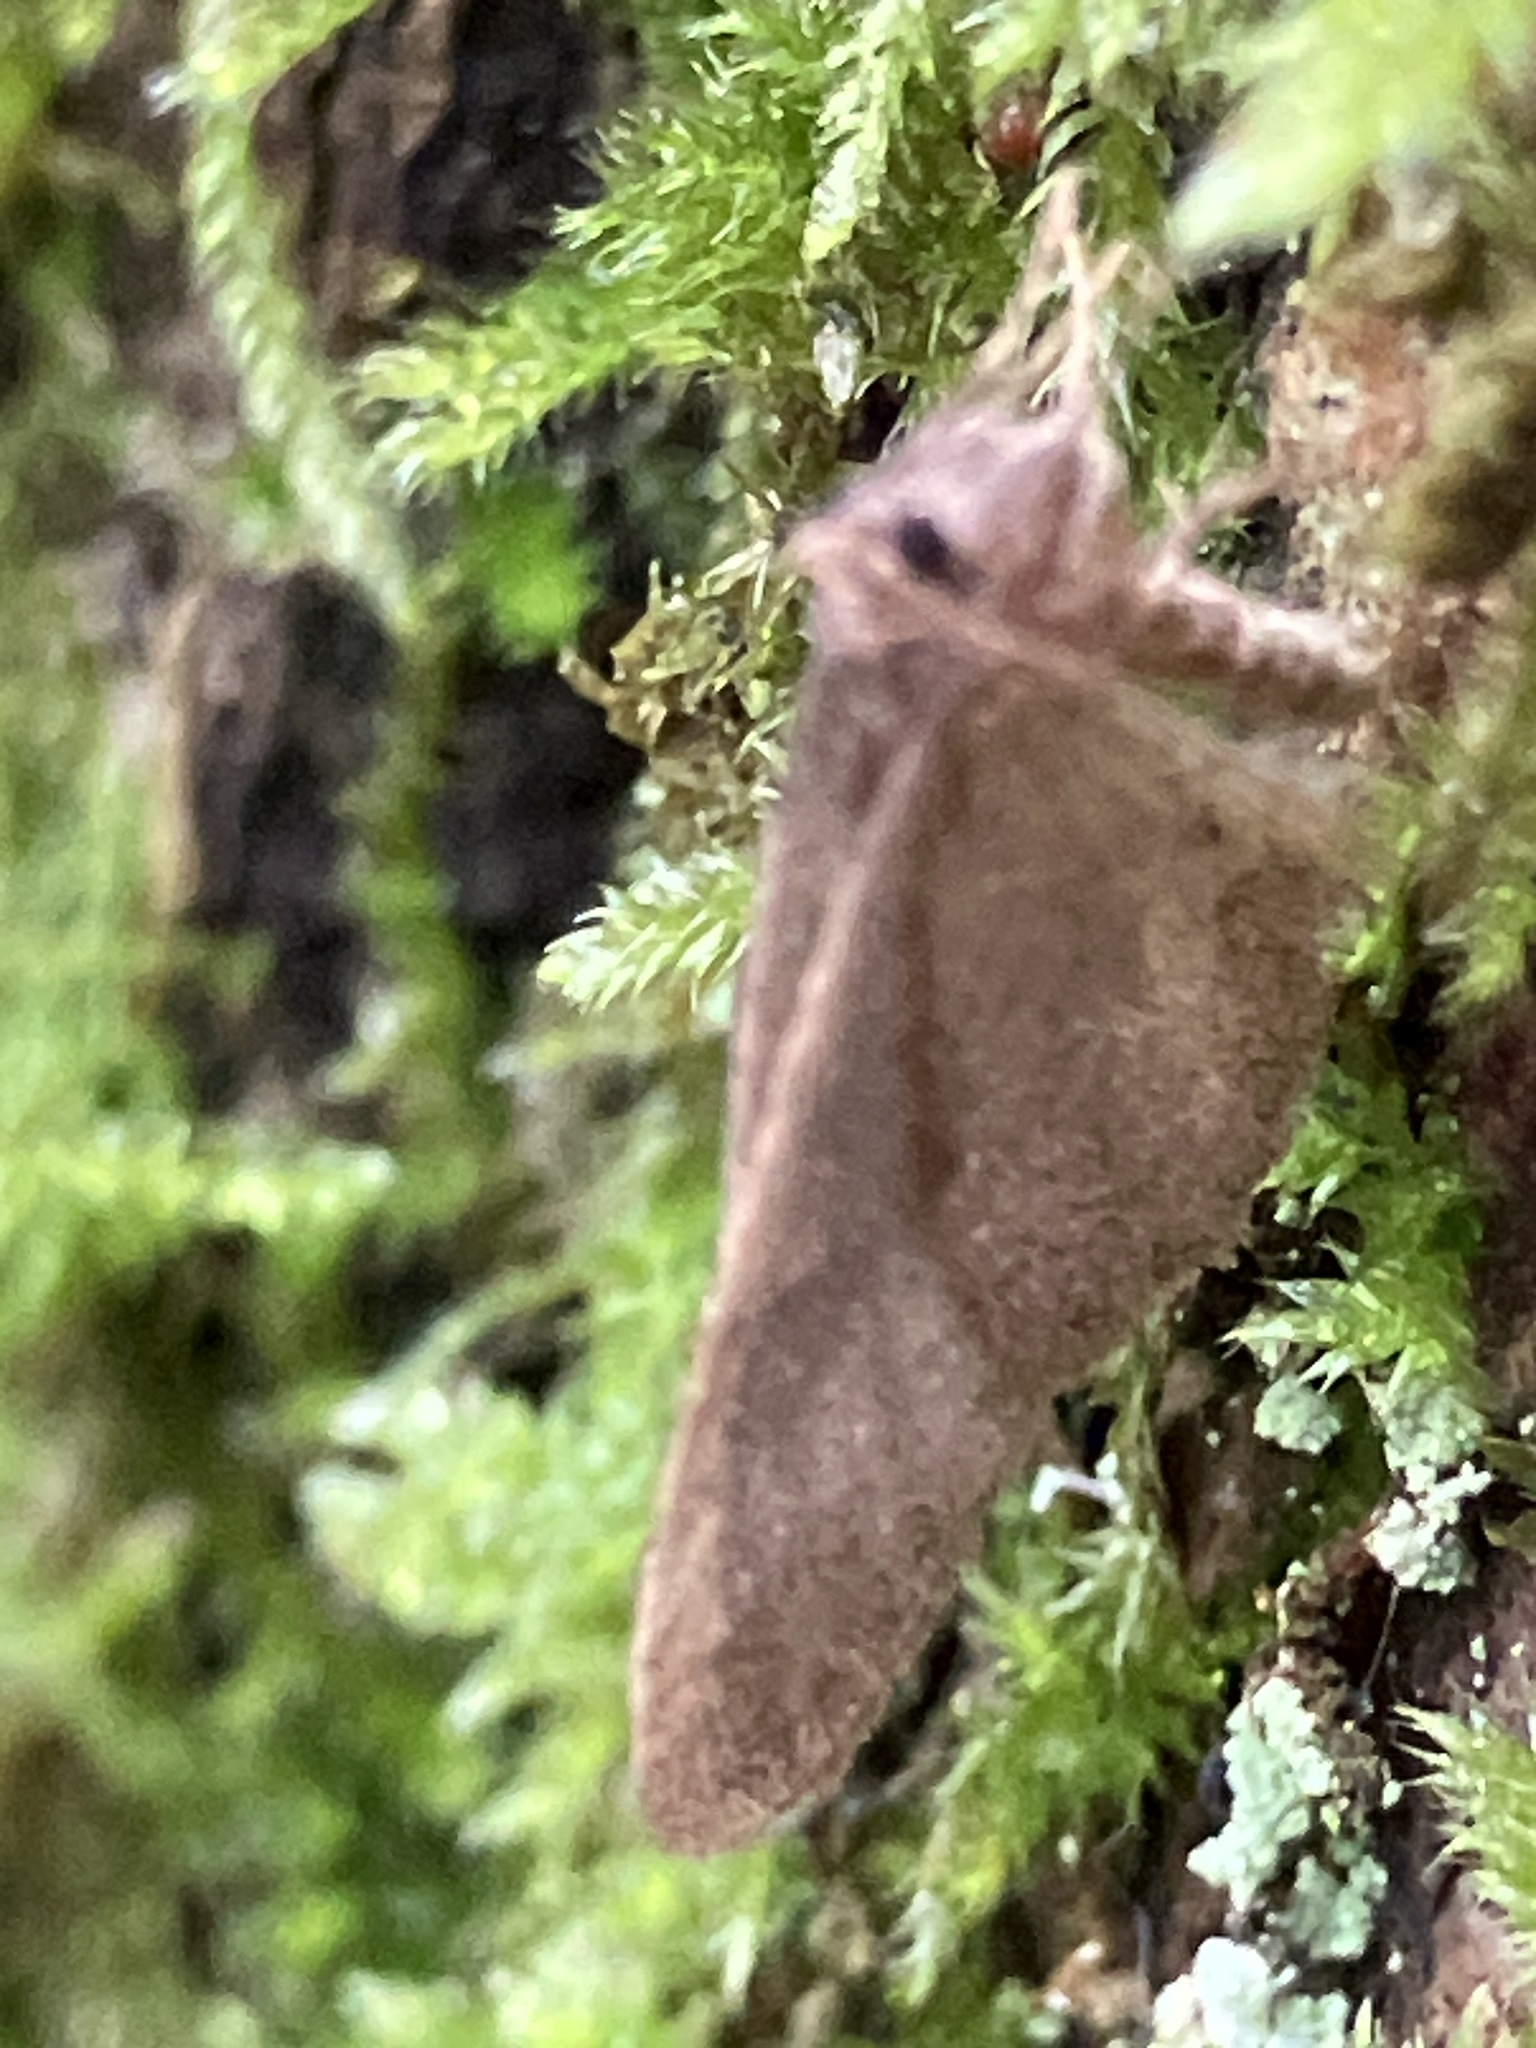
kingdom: Animalia
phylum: Arthropoda
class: Insecta
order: Lepidoptera
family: Geometridae
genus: Operophtera
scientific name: Operophtera brumata
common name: Winter moth
